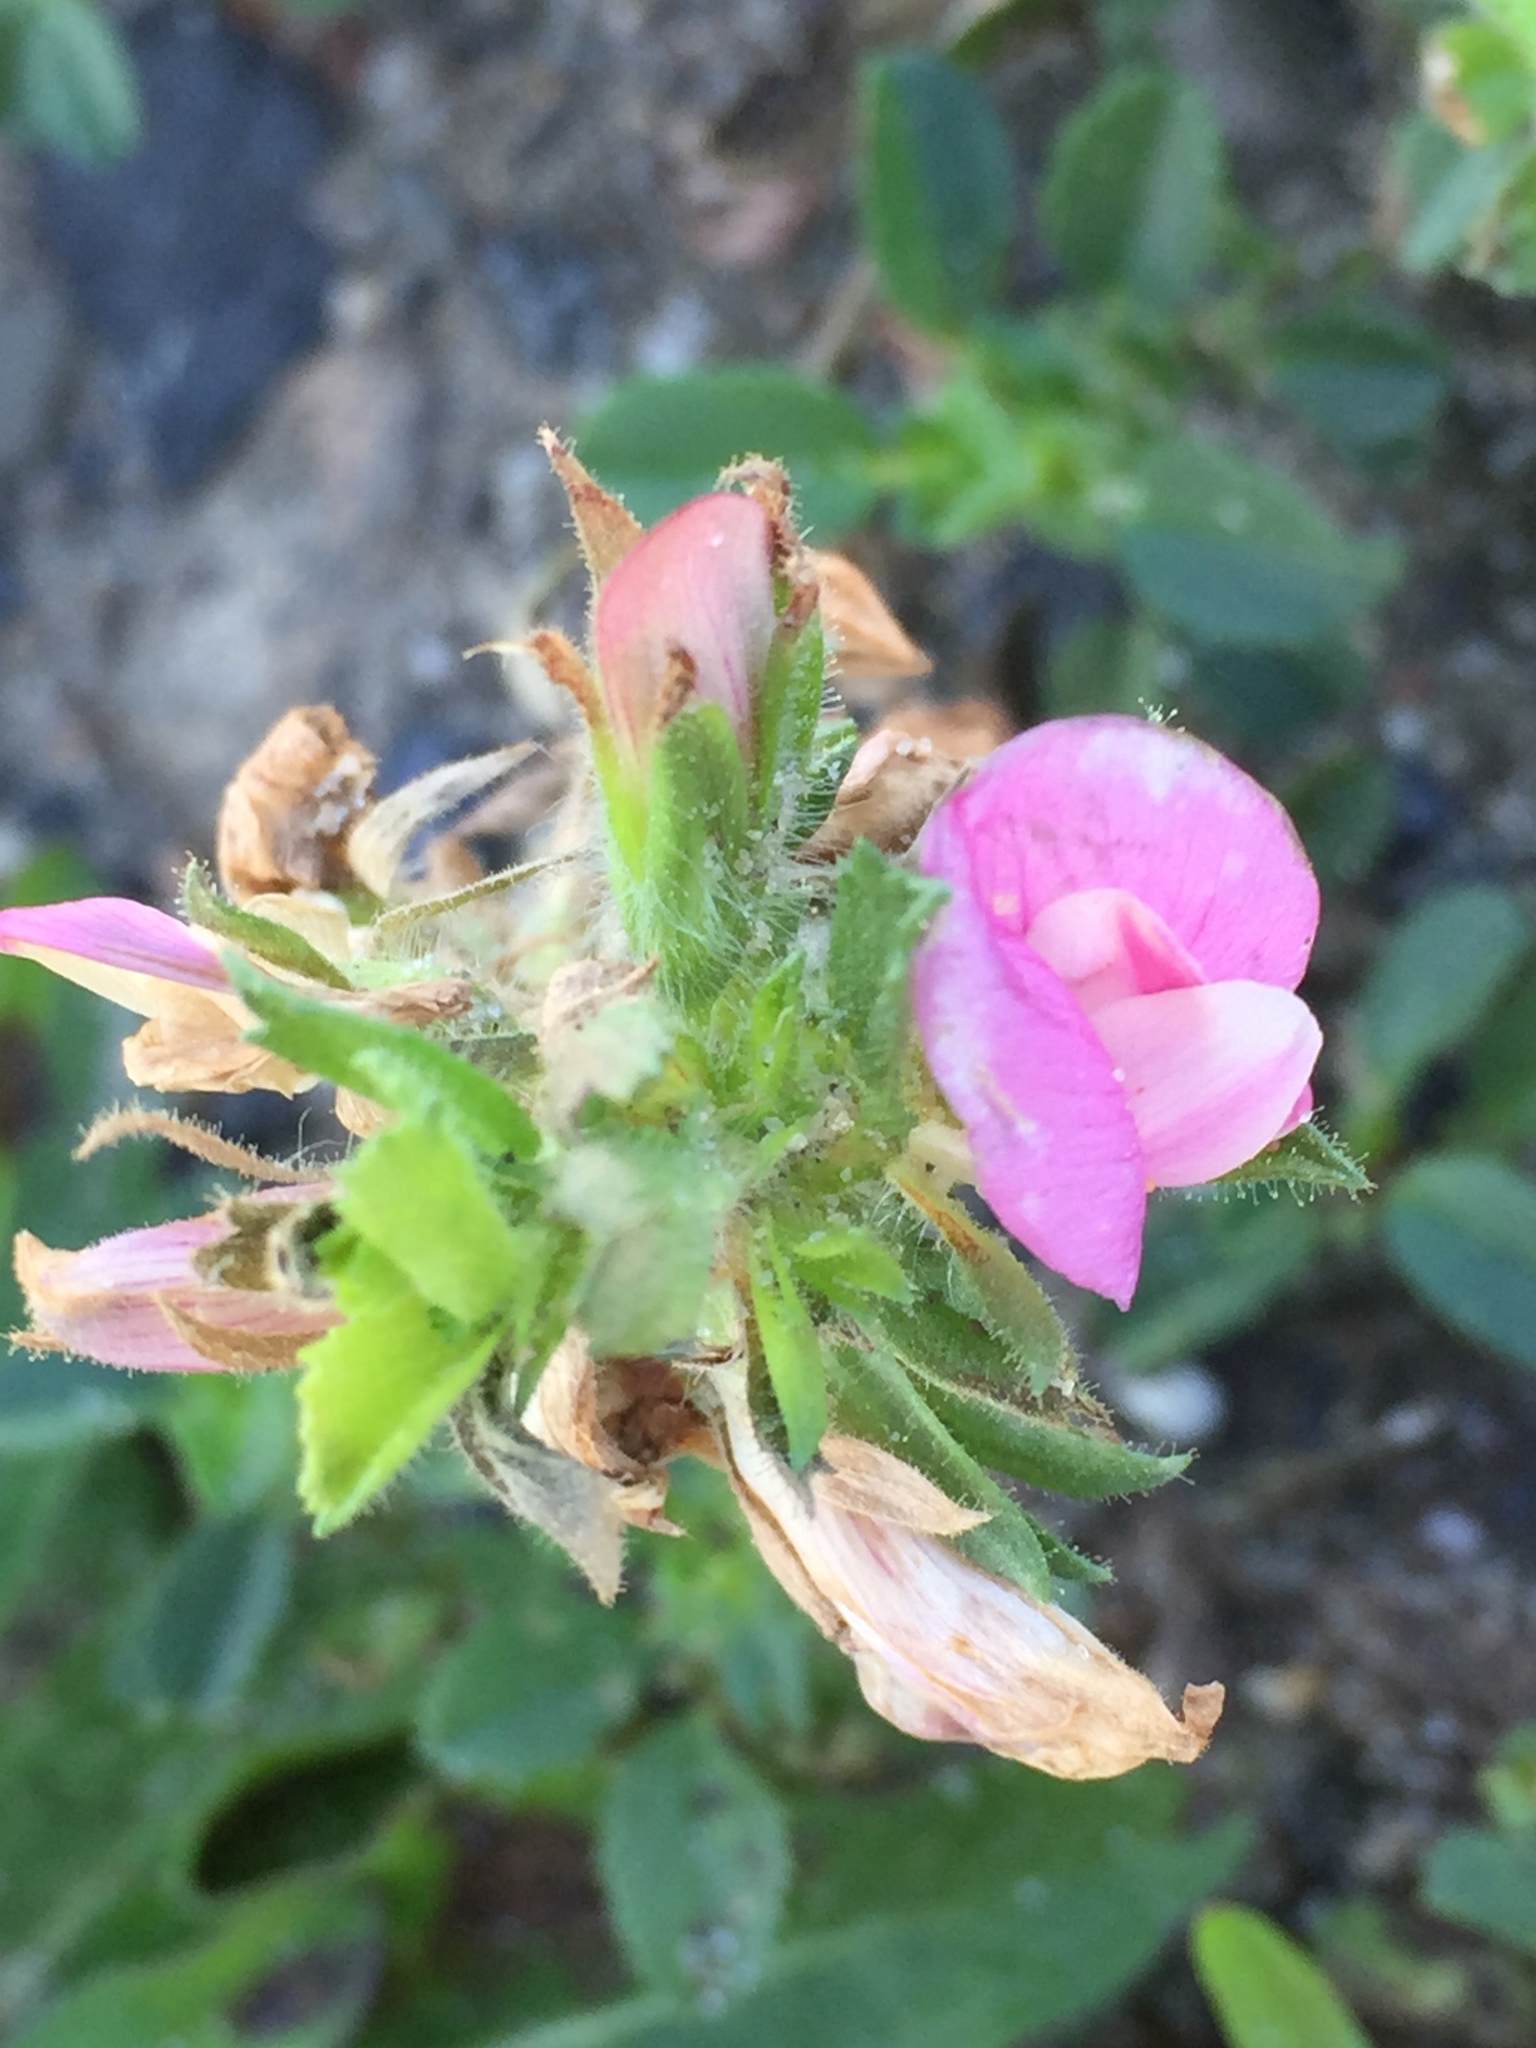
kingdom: Plantae
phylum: Tracheophyta
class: Magnoliopsida
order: Fabales
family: Fabaceae
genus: Ononis
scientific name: Ononis spinosa
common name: Spiny restharrow
